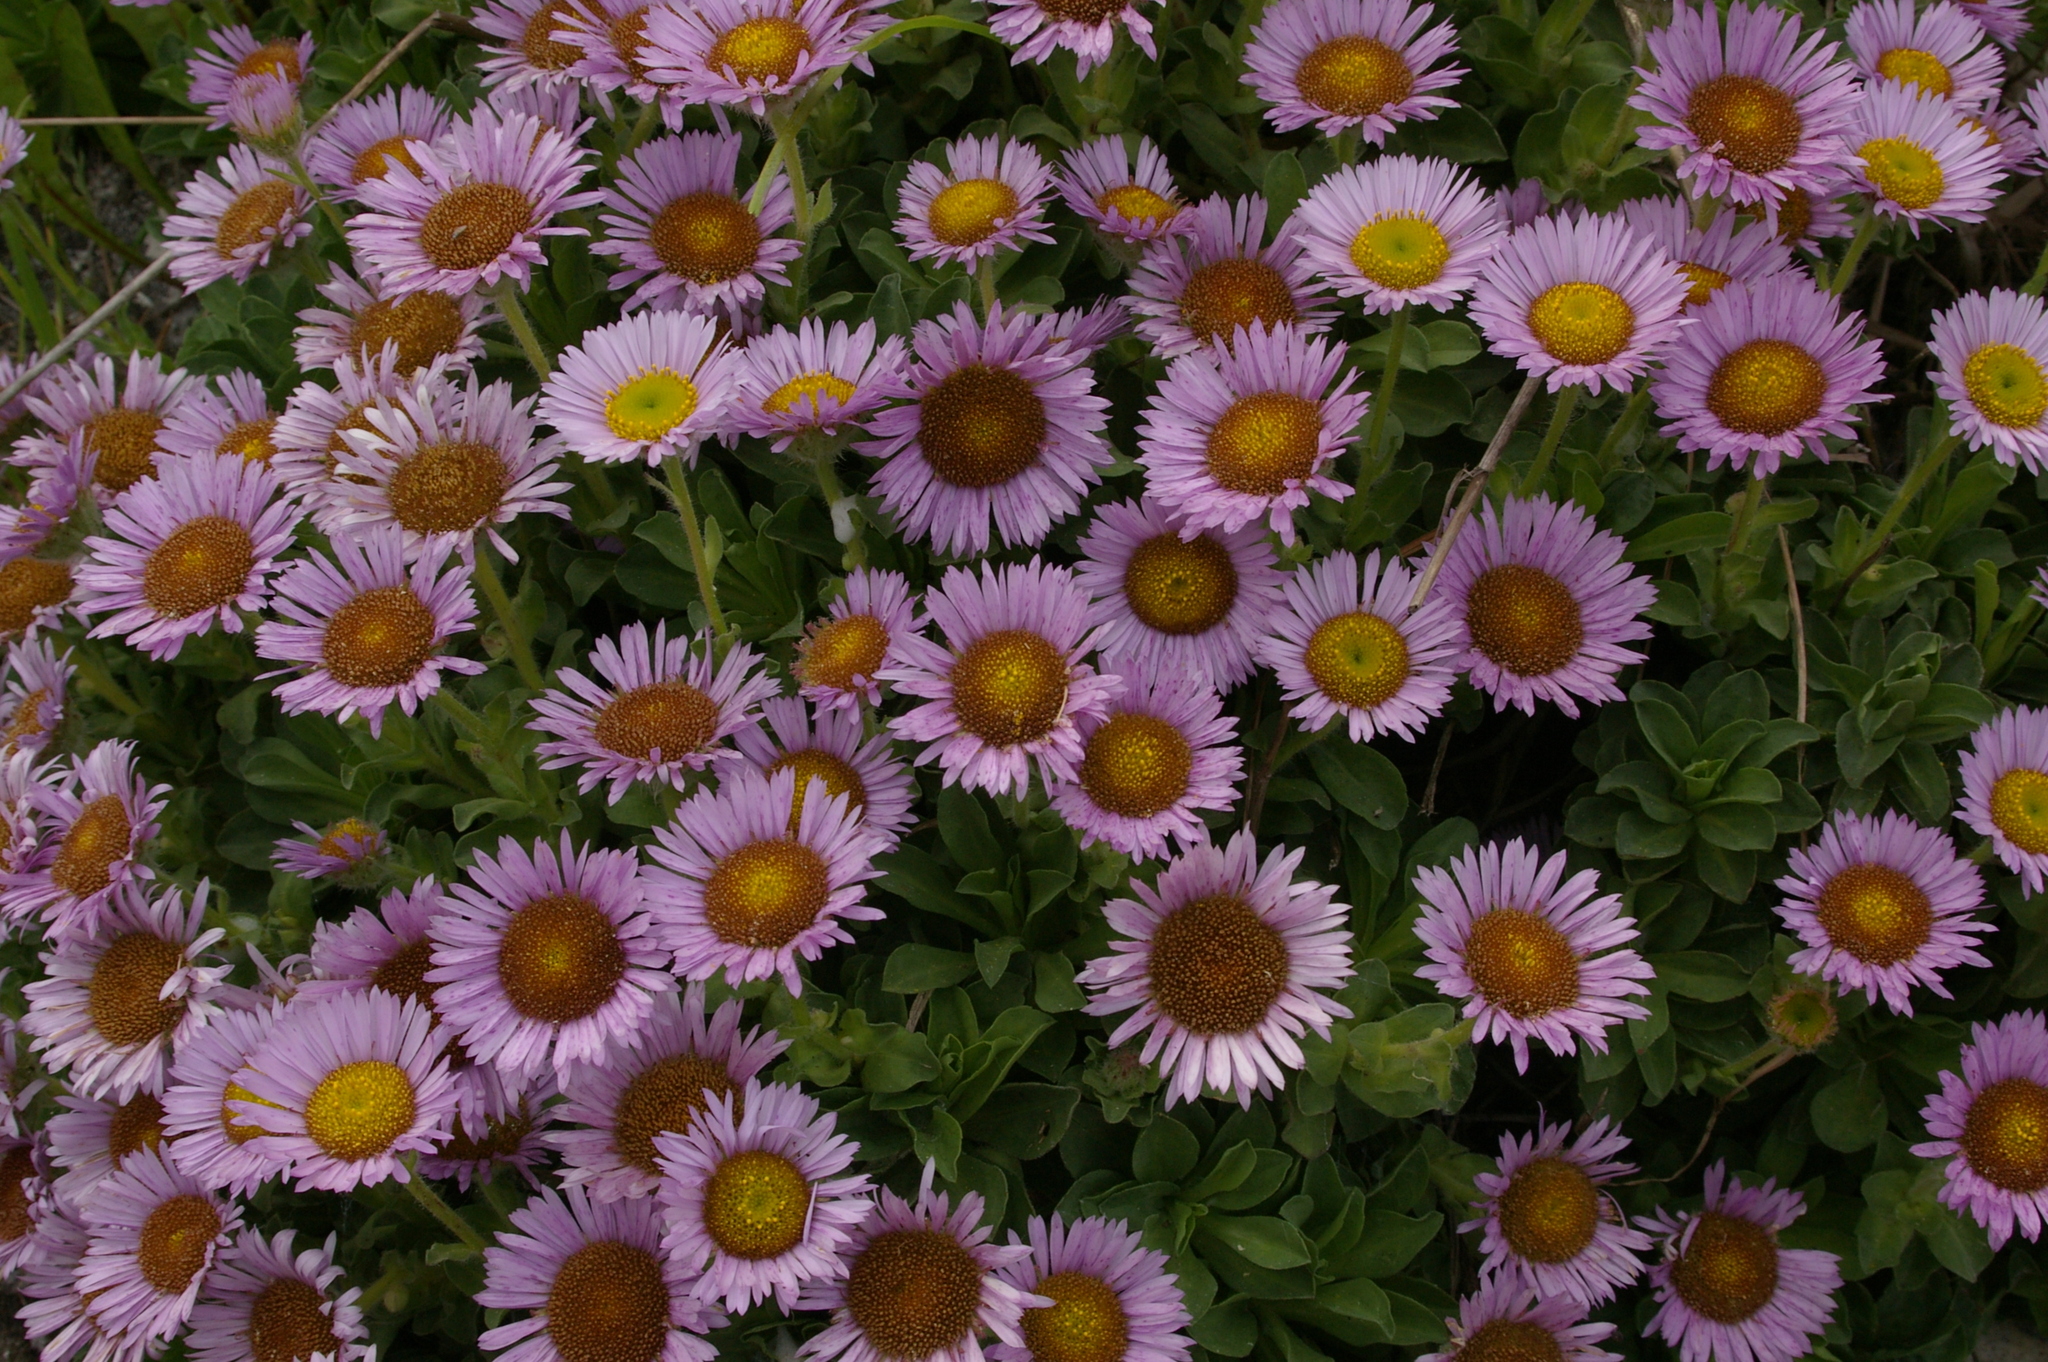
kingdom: Plantae
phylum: Tracheophyta
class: Magnoliopsida
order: Asterales
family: Asteraceae
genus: Erigeron
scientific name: Erigeron glaucus
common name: Seaside daisy
